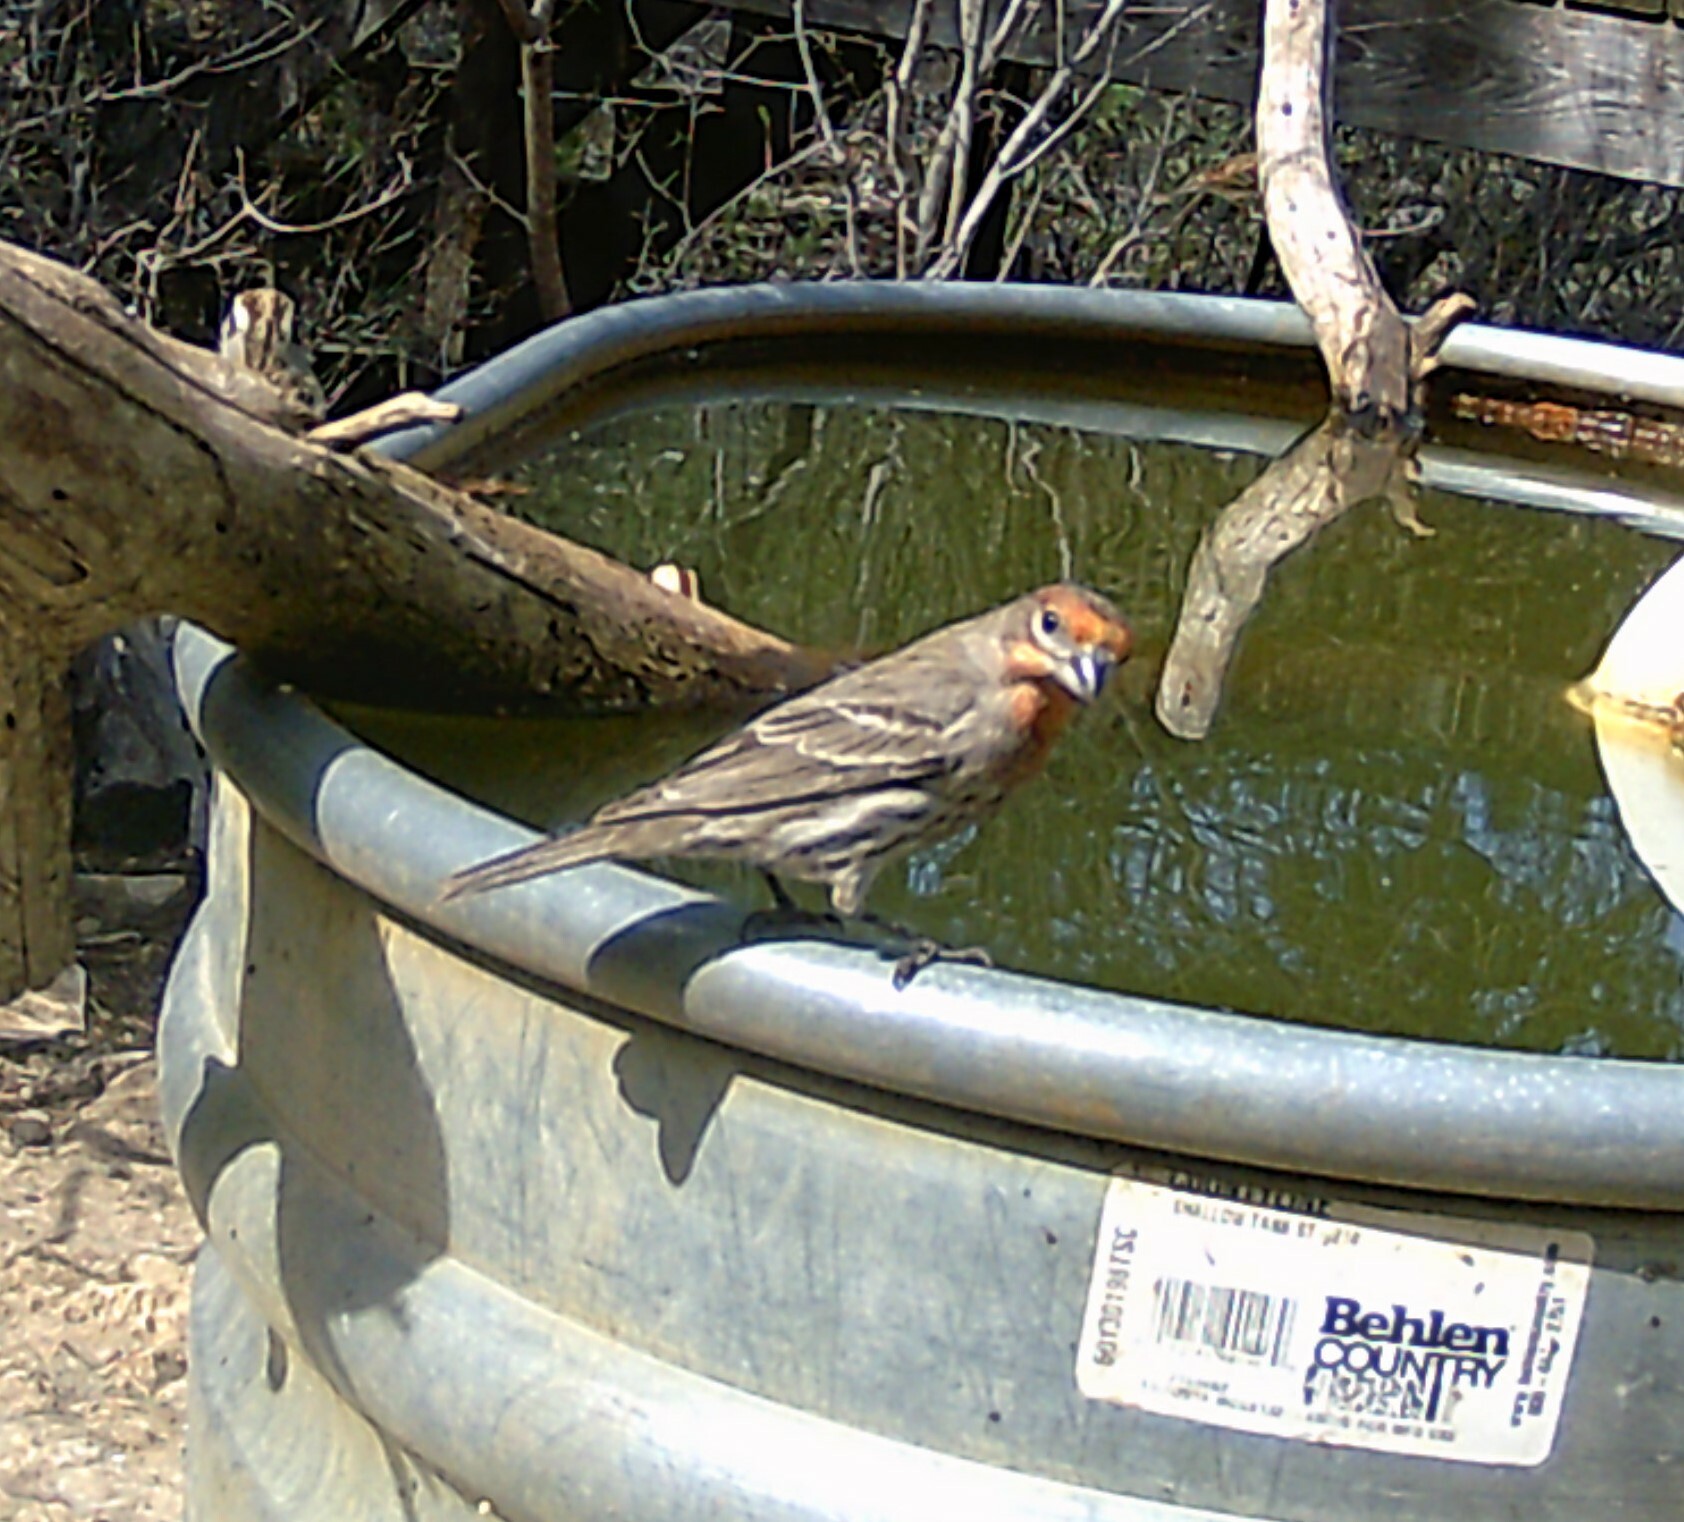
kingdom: Animalia
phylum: Chordata
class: Aves
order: Passeriformes
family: Fringillidae
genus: Haemorhous
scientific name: Haemorhous mexicanus
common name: House finch
